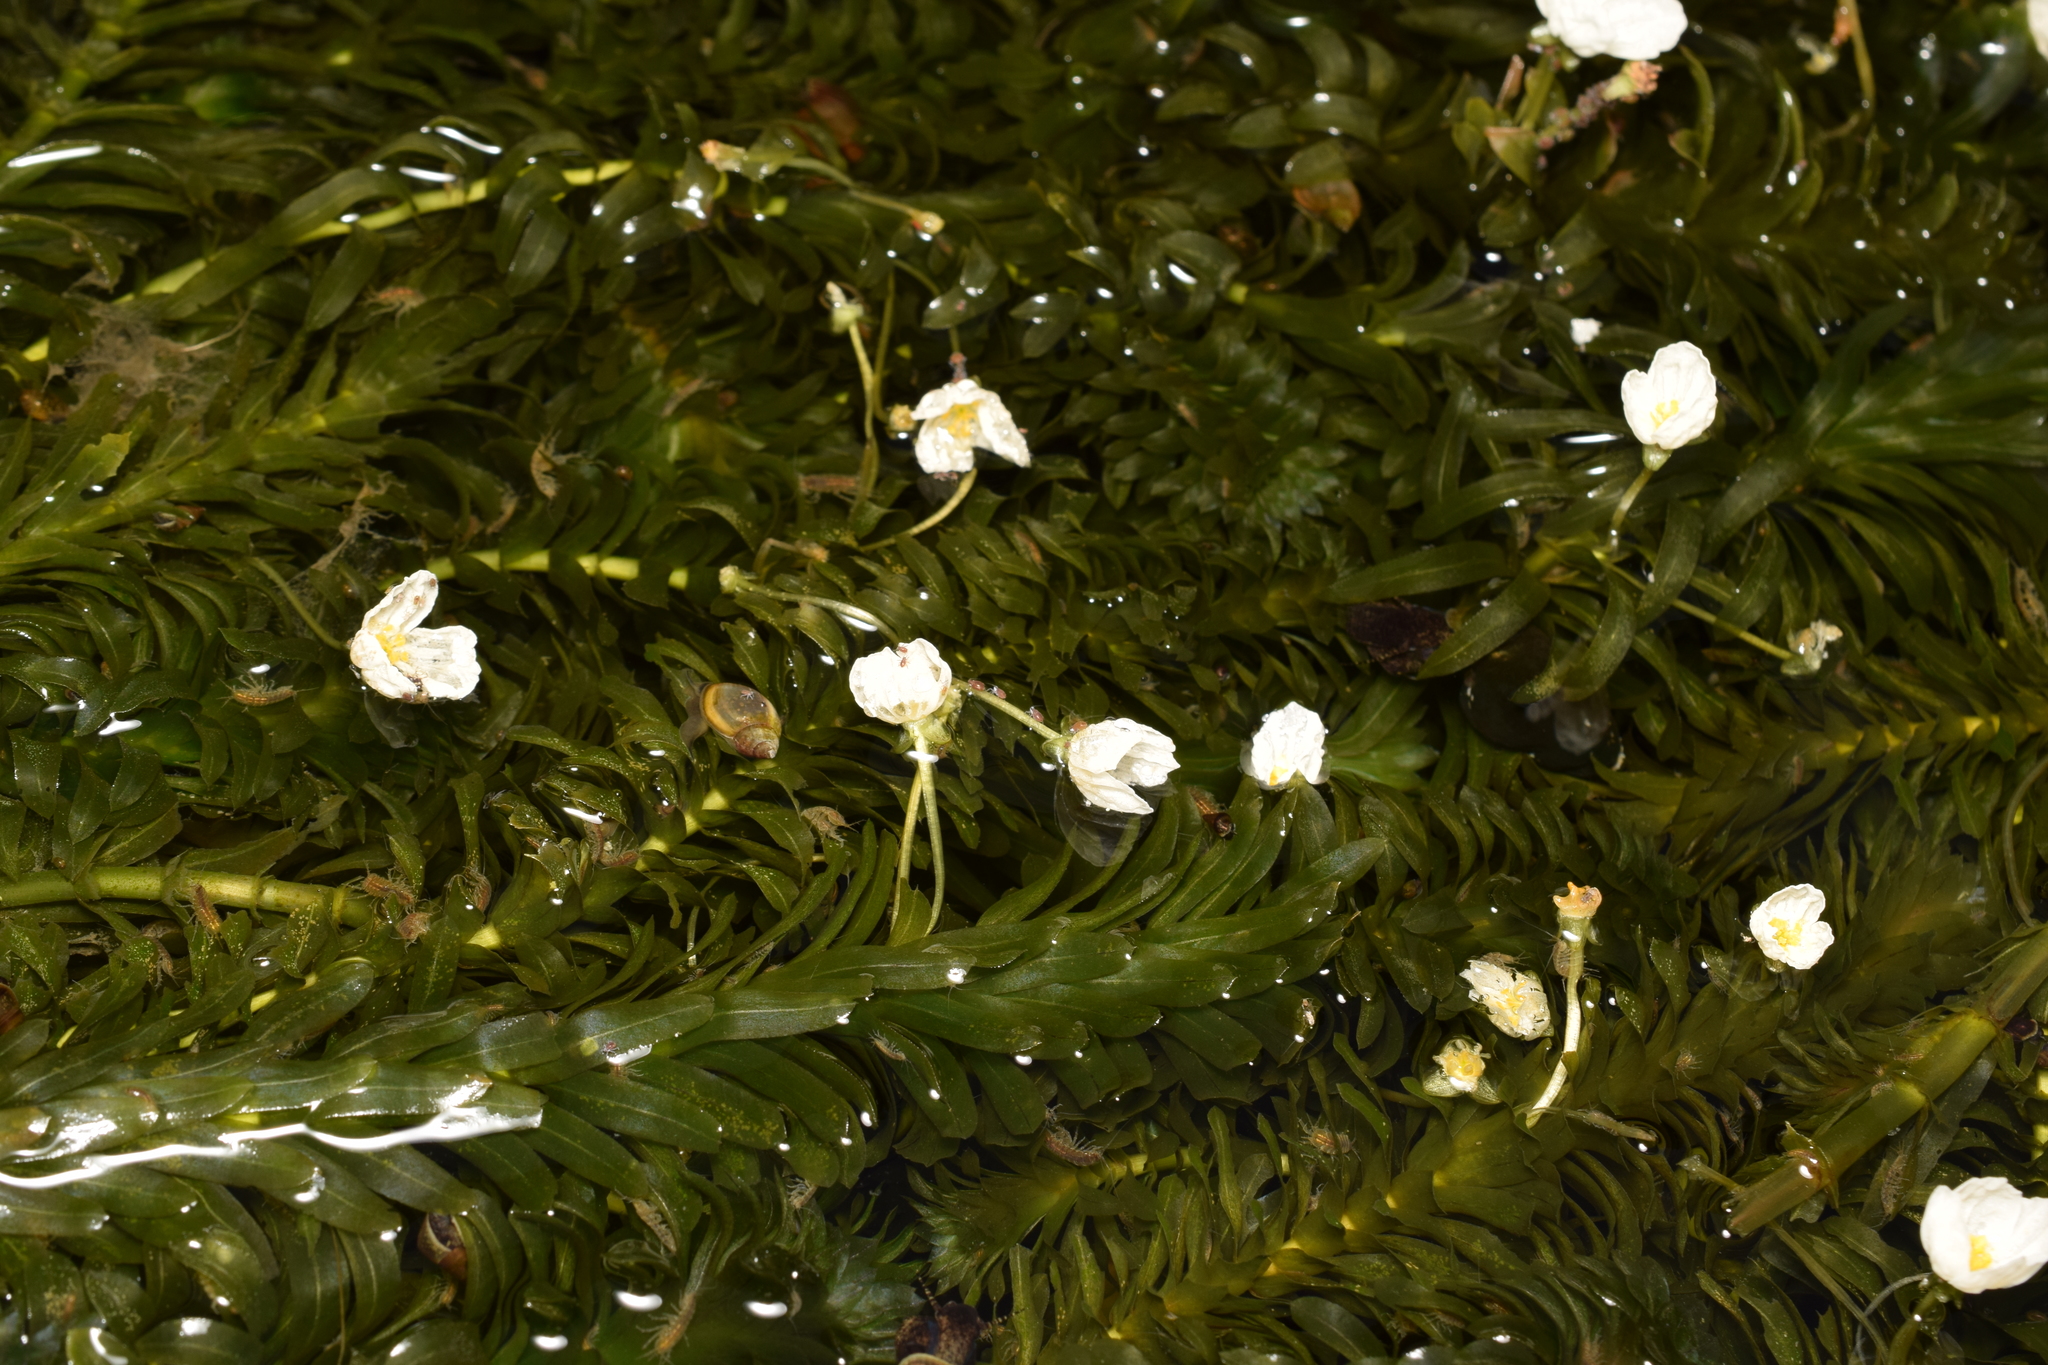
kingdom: Plantae
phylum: Tracheophyta
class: Liliopsida
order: Alismatales
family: Hydrocharitaceae
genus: Elodea
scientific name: Elodea densa
